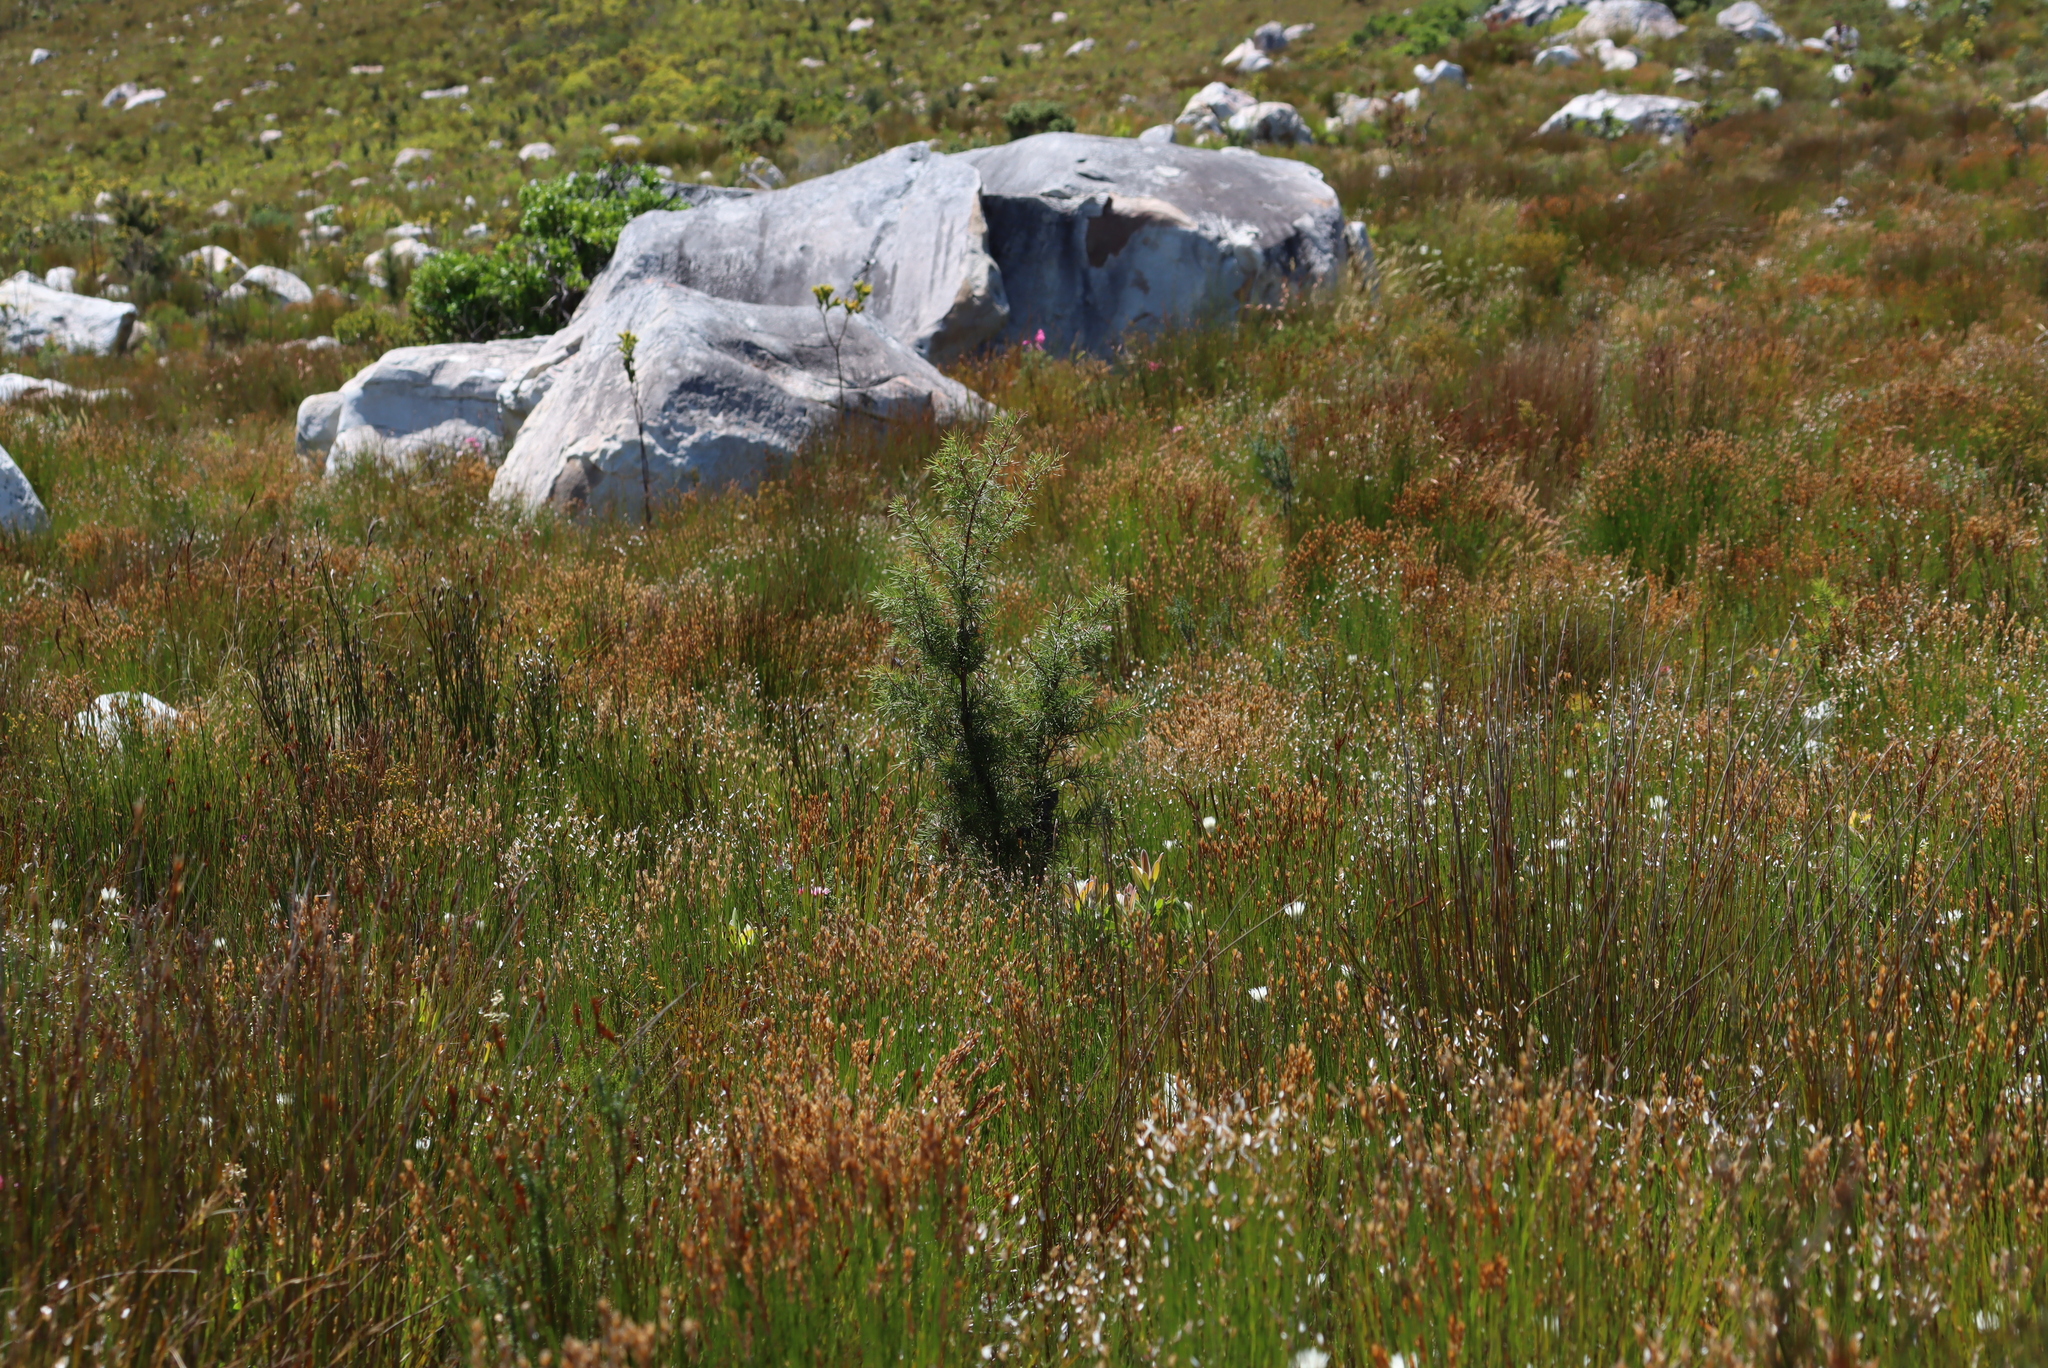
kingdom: Plantae
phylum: Tracheophyta
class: Magnoliopsida
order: Proteales
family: Proteaceae
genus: Hakea
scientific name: Hakea sericea
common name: Needle bush
